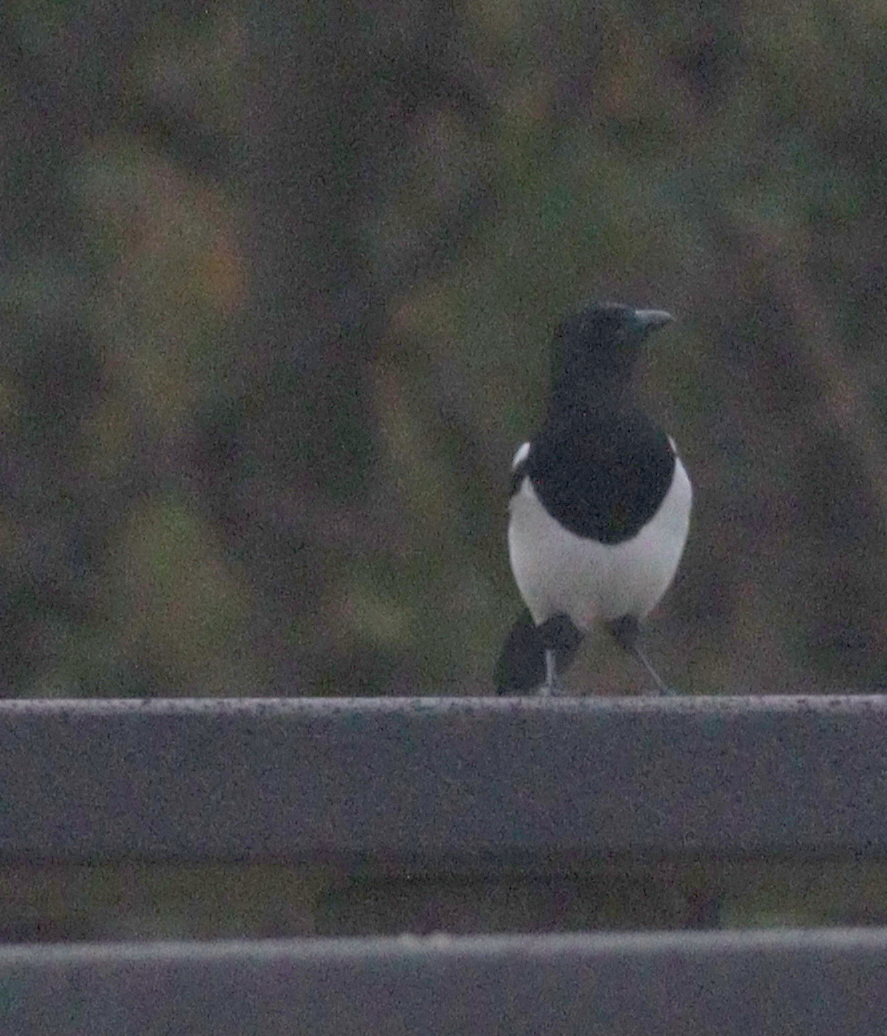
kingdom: Animalia
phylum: Chordata
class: Aves
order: Passeriformes
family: Corvidae
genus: Pica
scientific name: Pica pica
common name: Eurasian magpie
